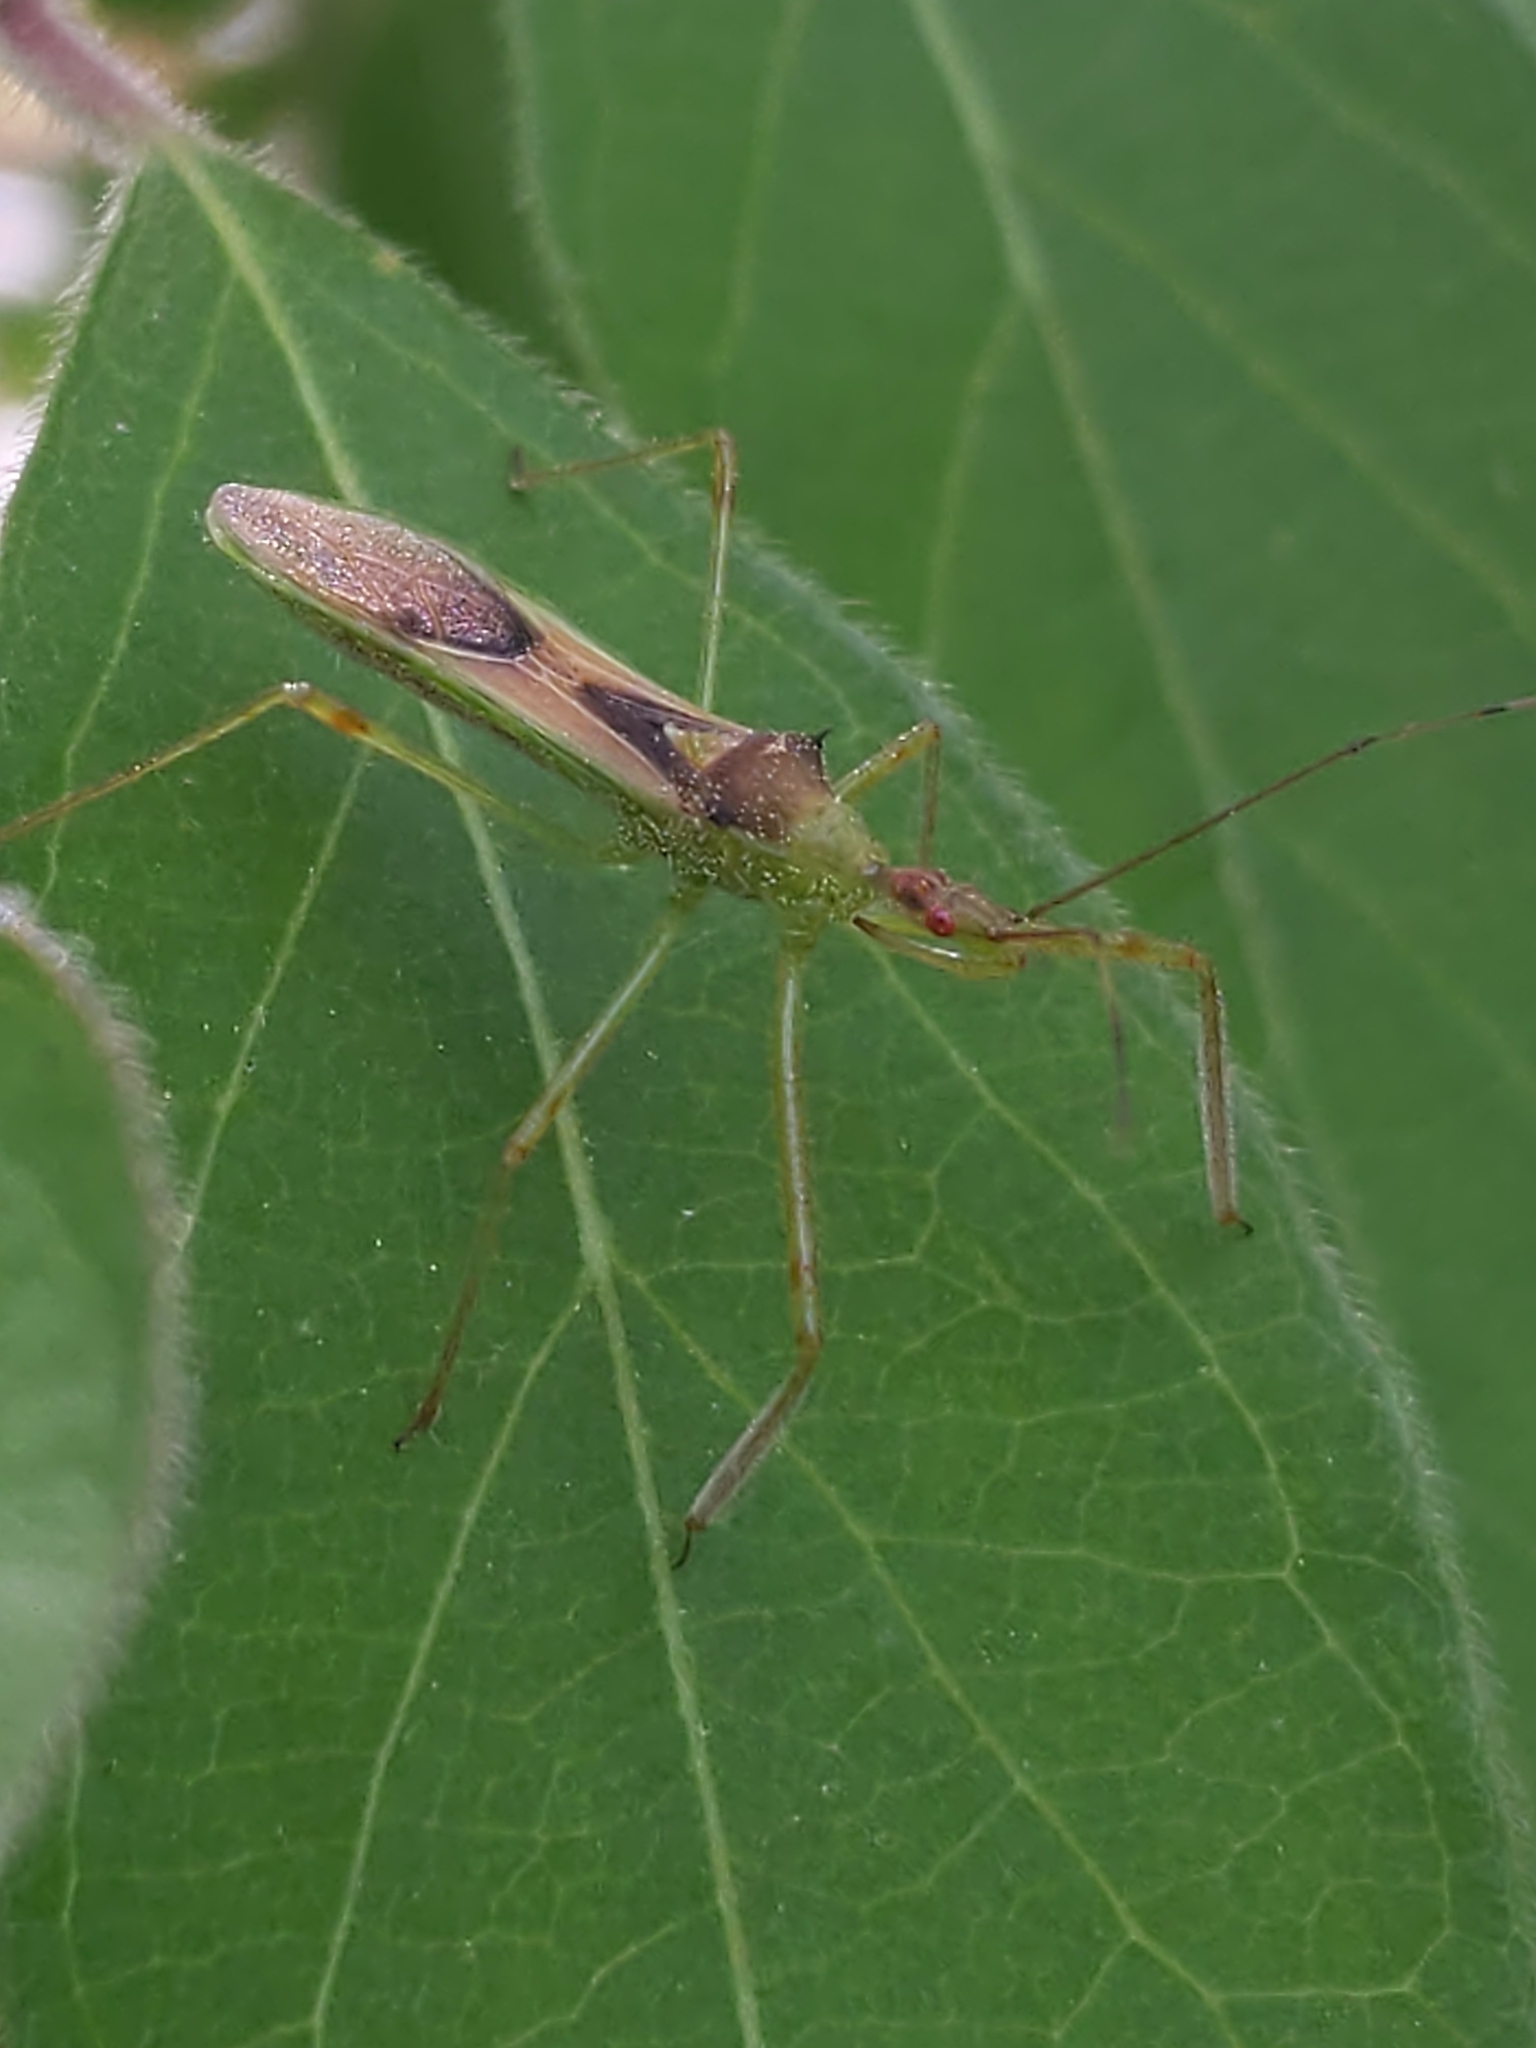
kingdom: Animalia
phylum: Arthropoda
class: Insecta
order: Hemiptera
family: Reduviidae
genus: Zelus
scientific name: Zelus luridus
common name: Pale green assassin bug
